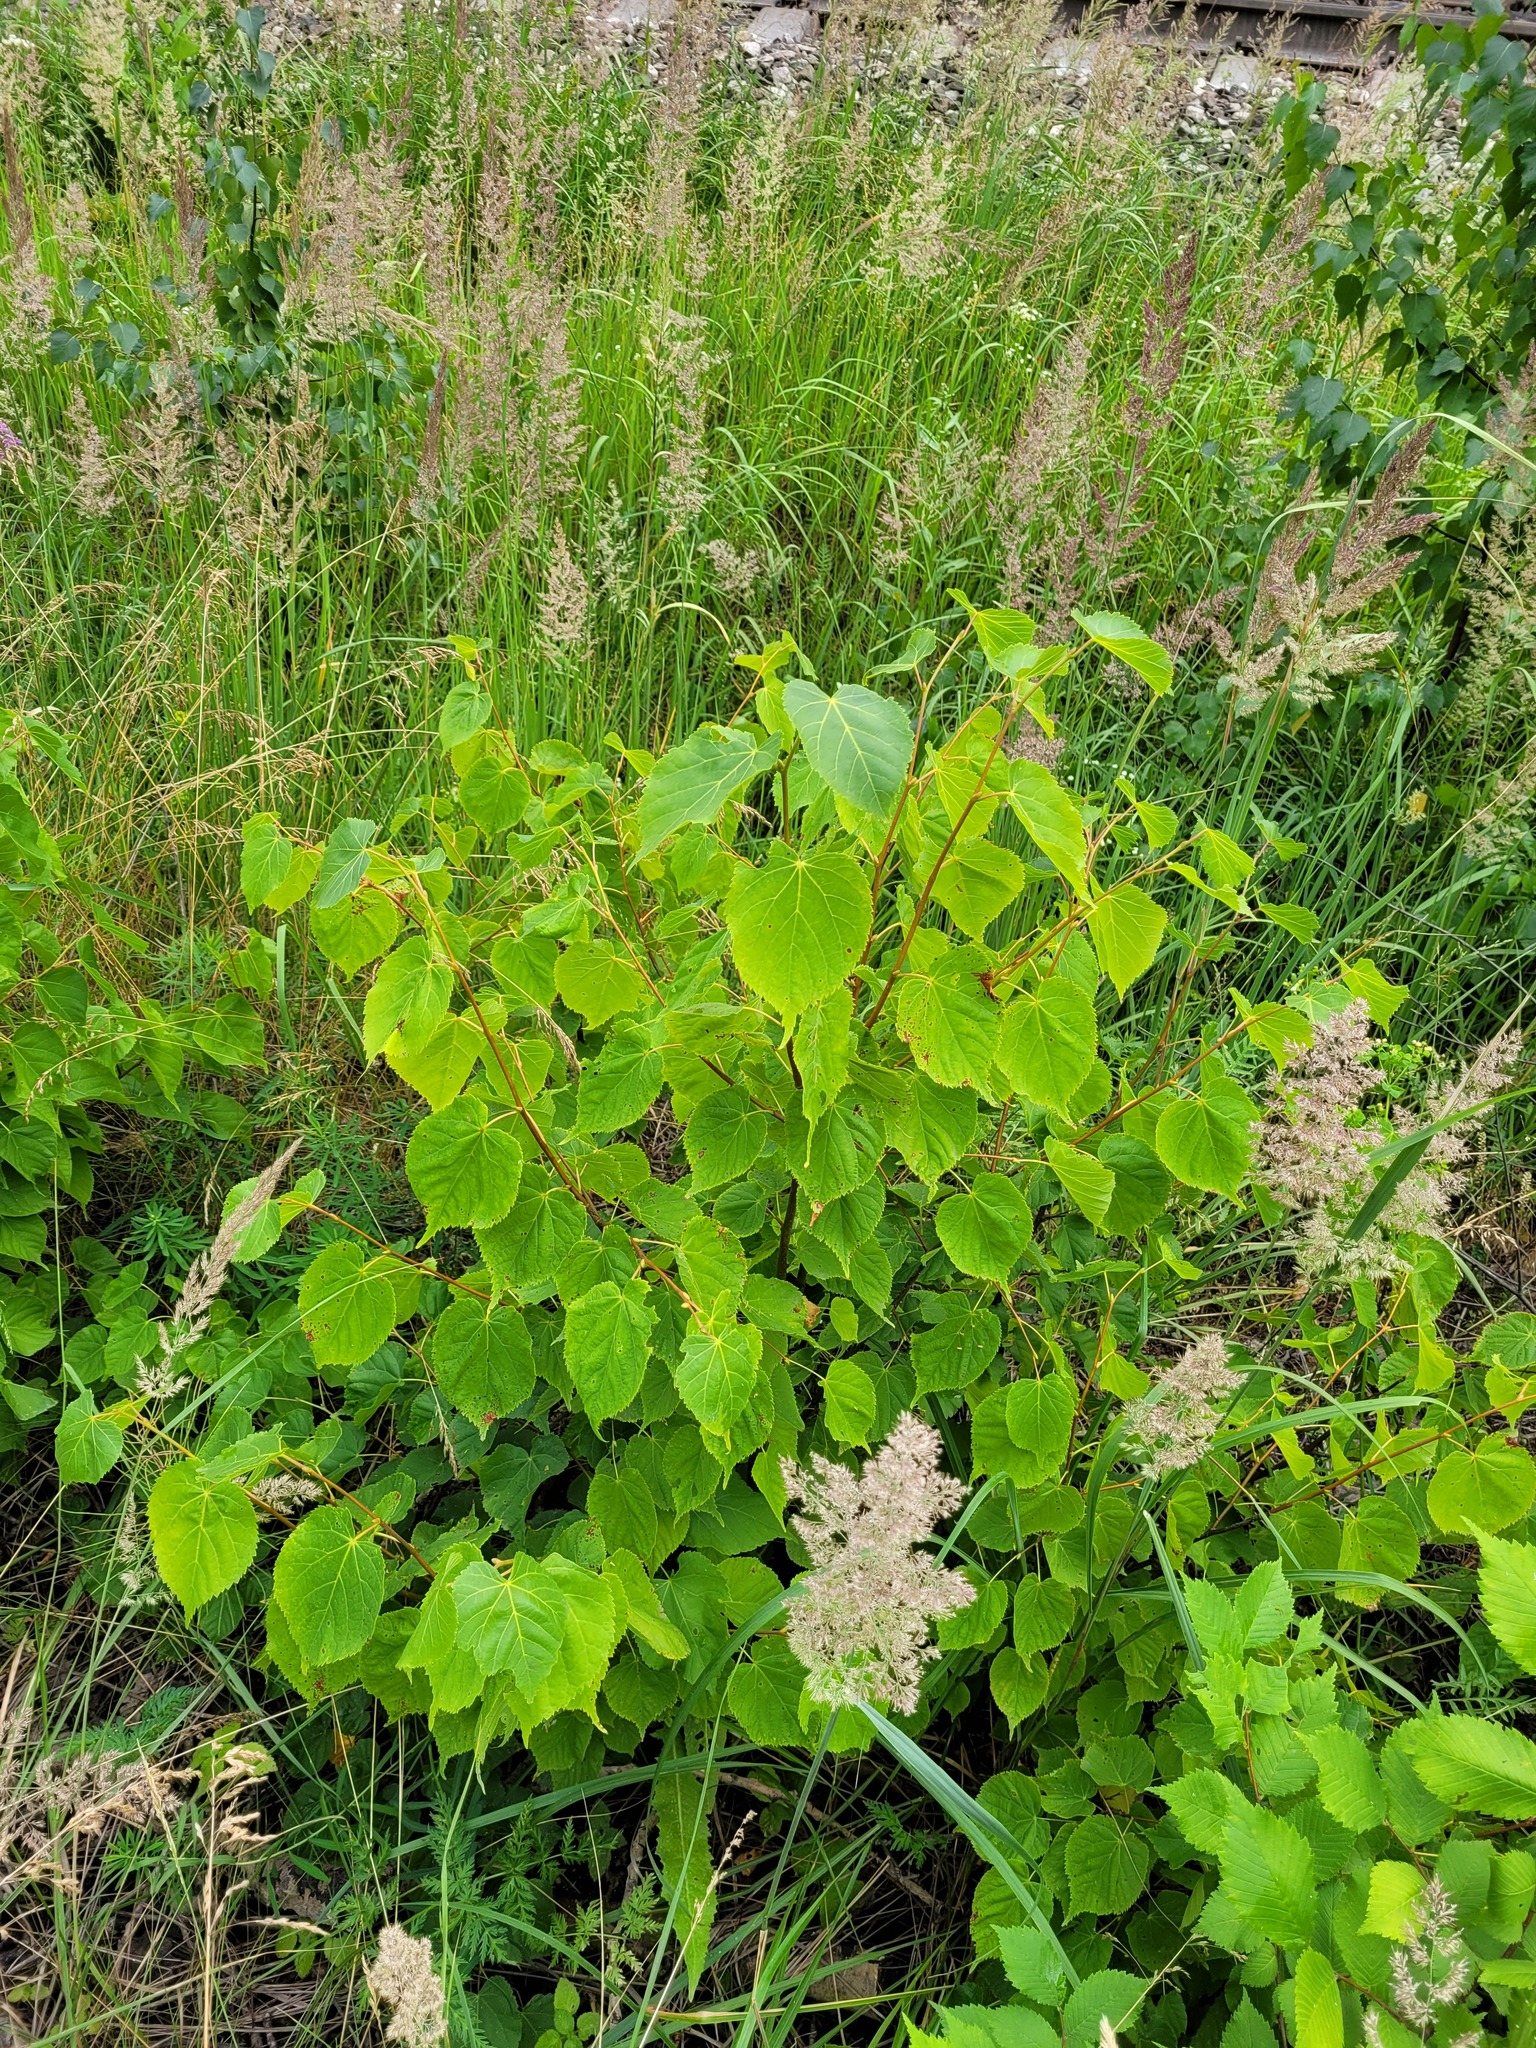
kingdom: Plantae
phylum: Tracheophyta
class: Magnoliopsida
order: Malvales
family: Malvaceae
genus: Tilia
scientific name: Tilia cordata
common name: Small-leaved lime
